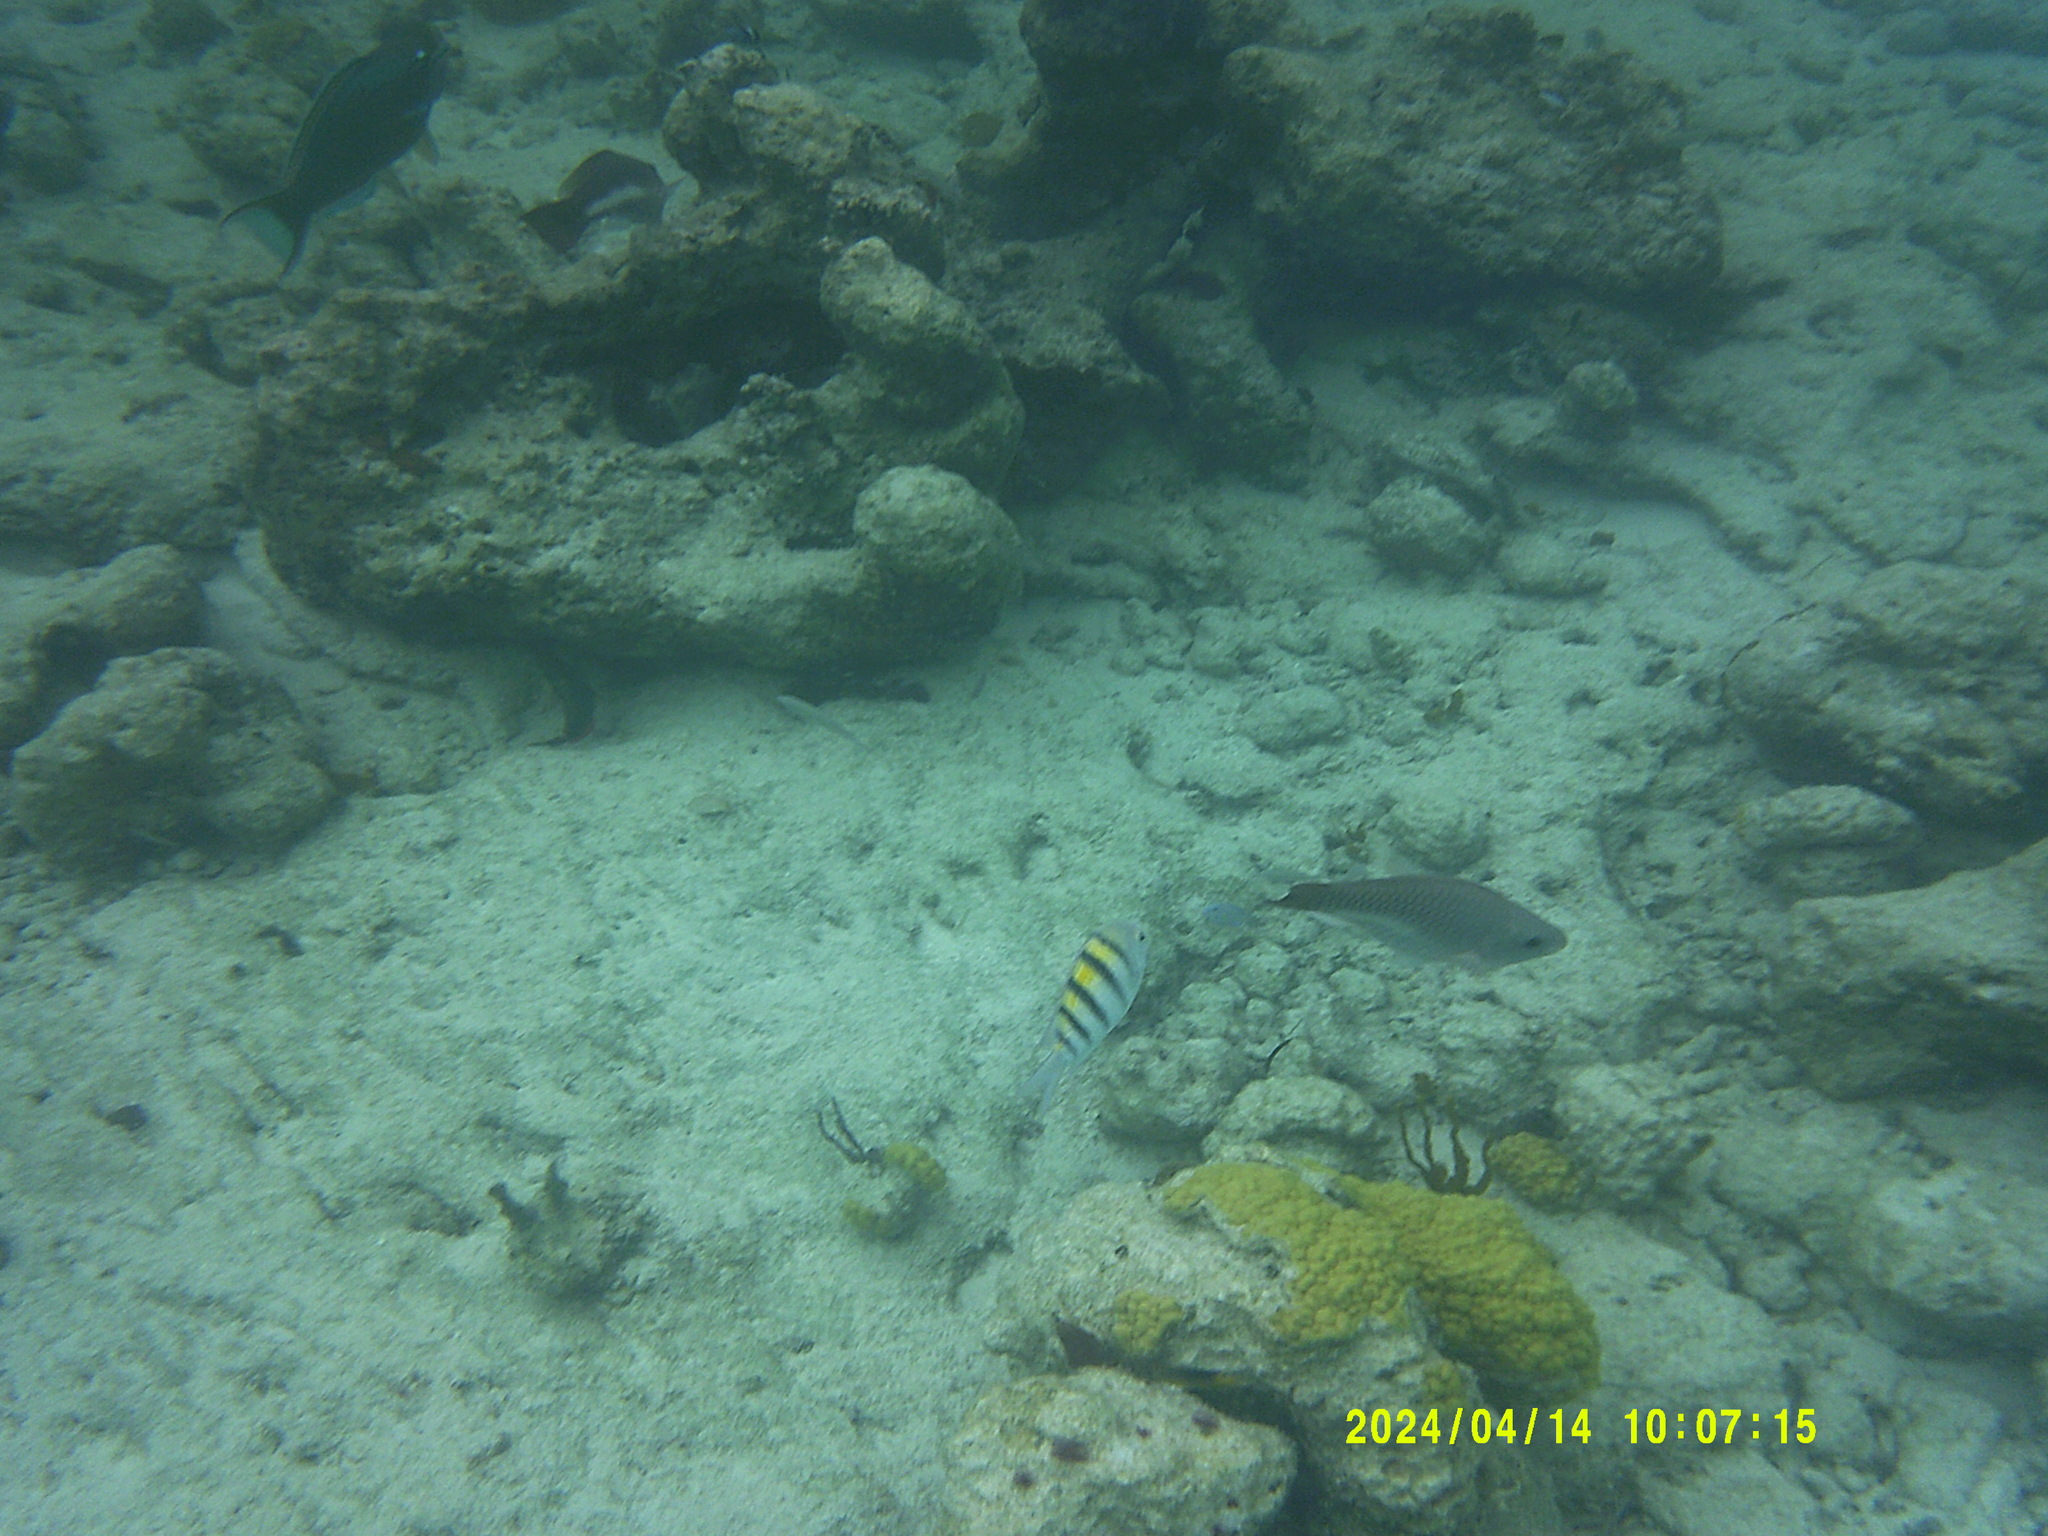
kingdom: Animalia
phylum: Chordata
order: Perciformes
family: Pomacentridae
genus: Abudefduf
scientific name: Abudefduf saxatilis
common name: Sergeant major
